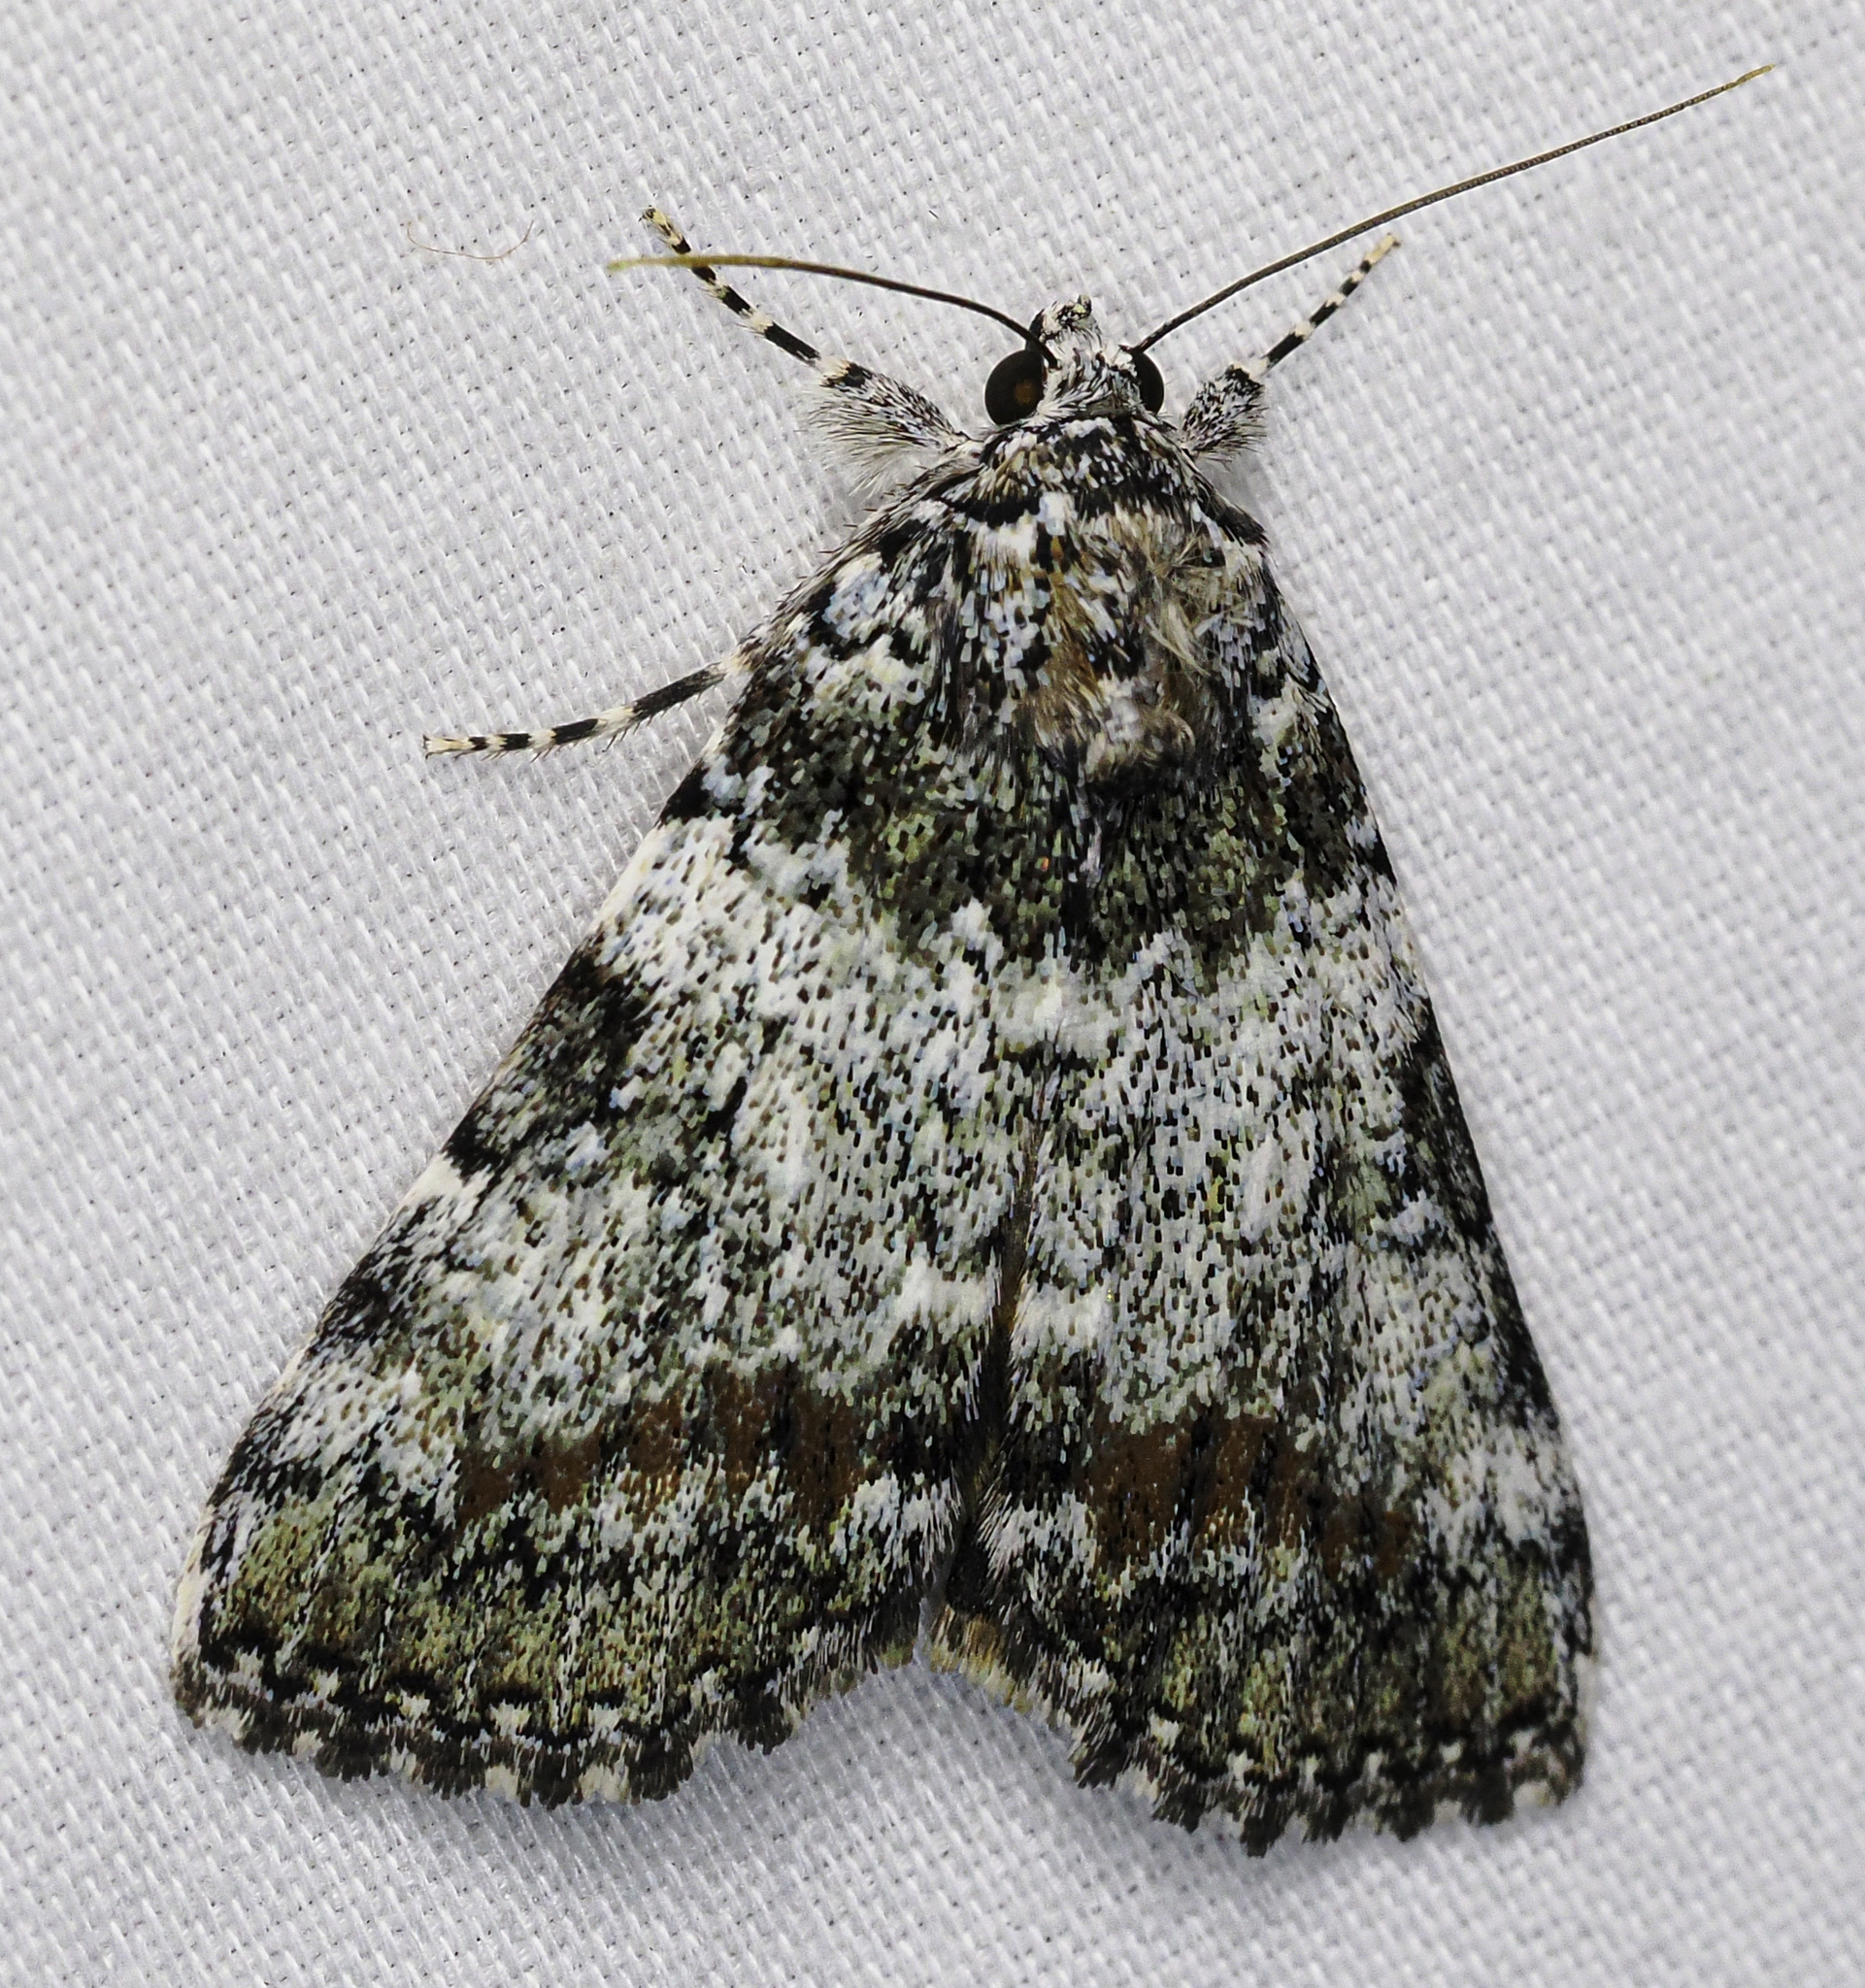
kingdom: Animalia
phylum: Arthropoda
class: Insecta
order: Lepidoptera
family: Erebidae
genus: Catocala
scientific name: Catocala connubialis
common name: Connubial underwing
